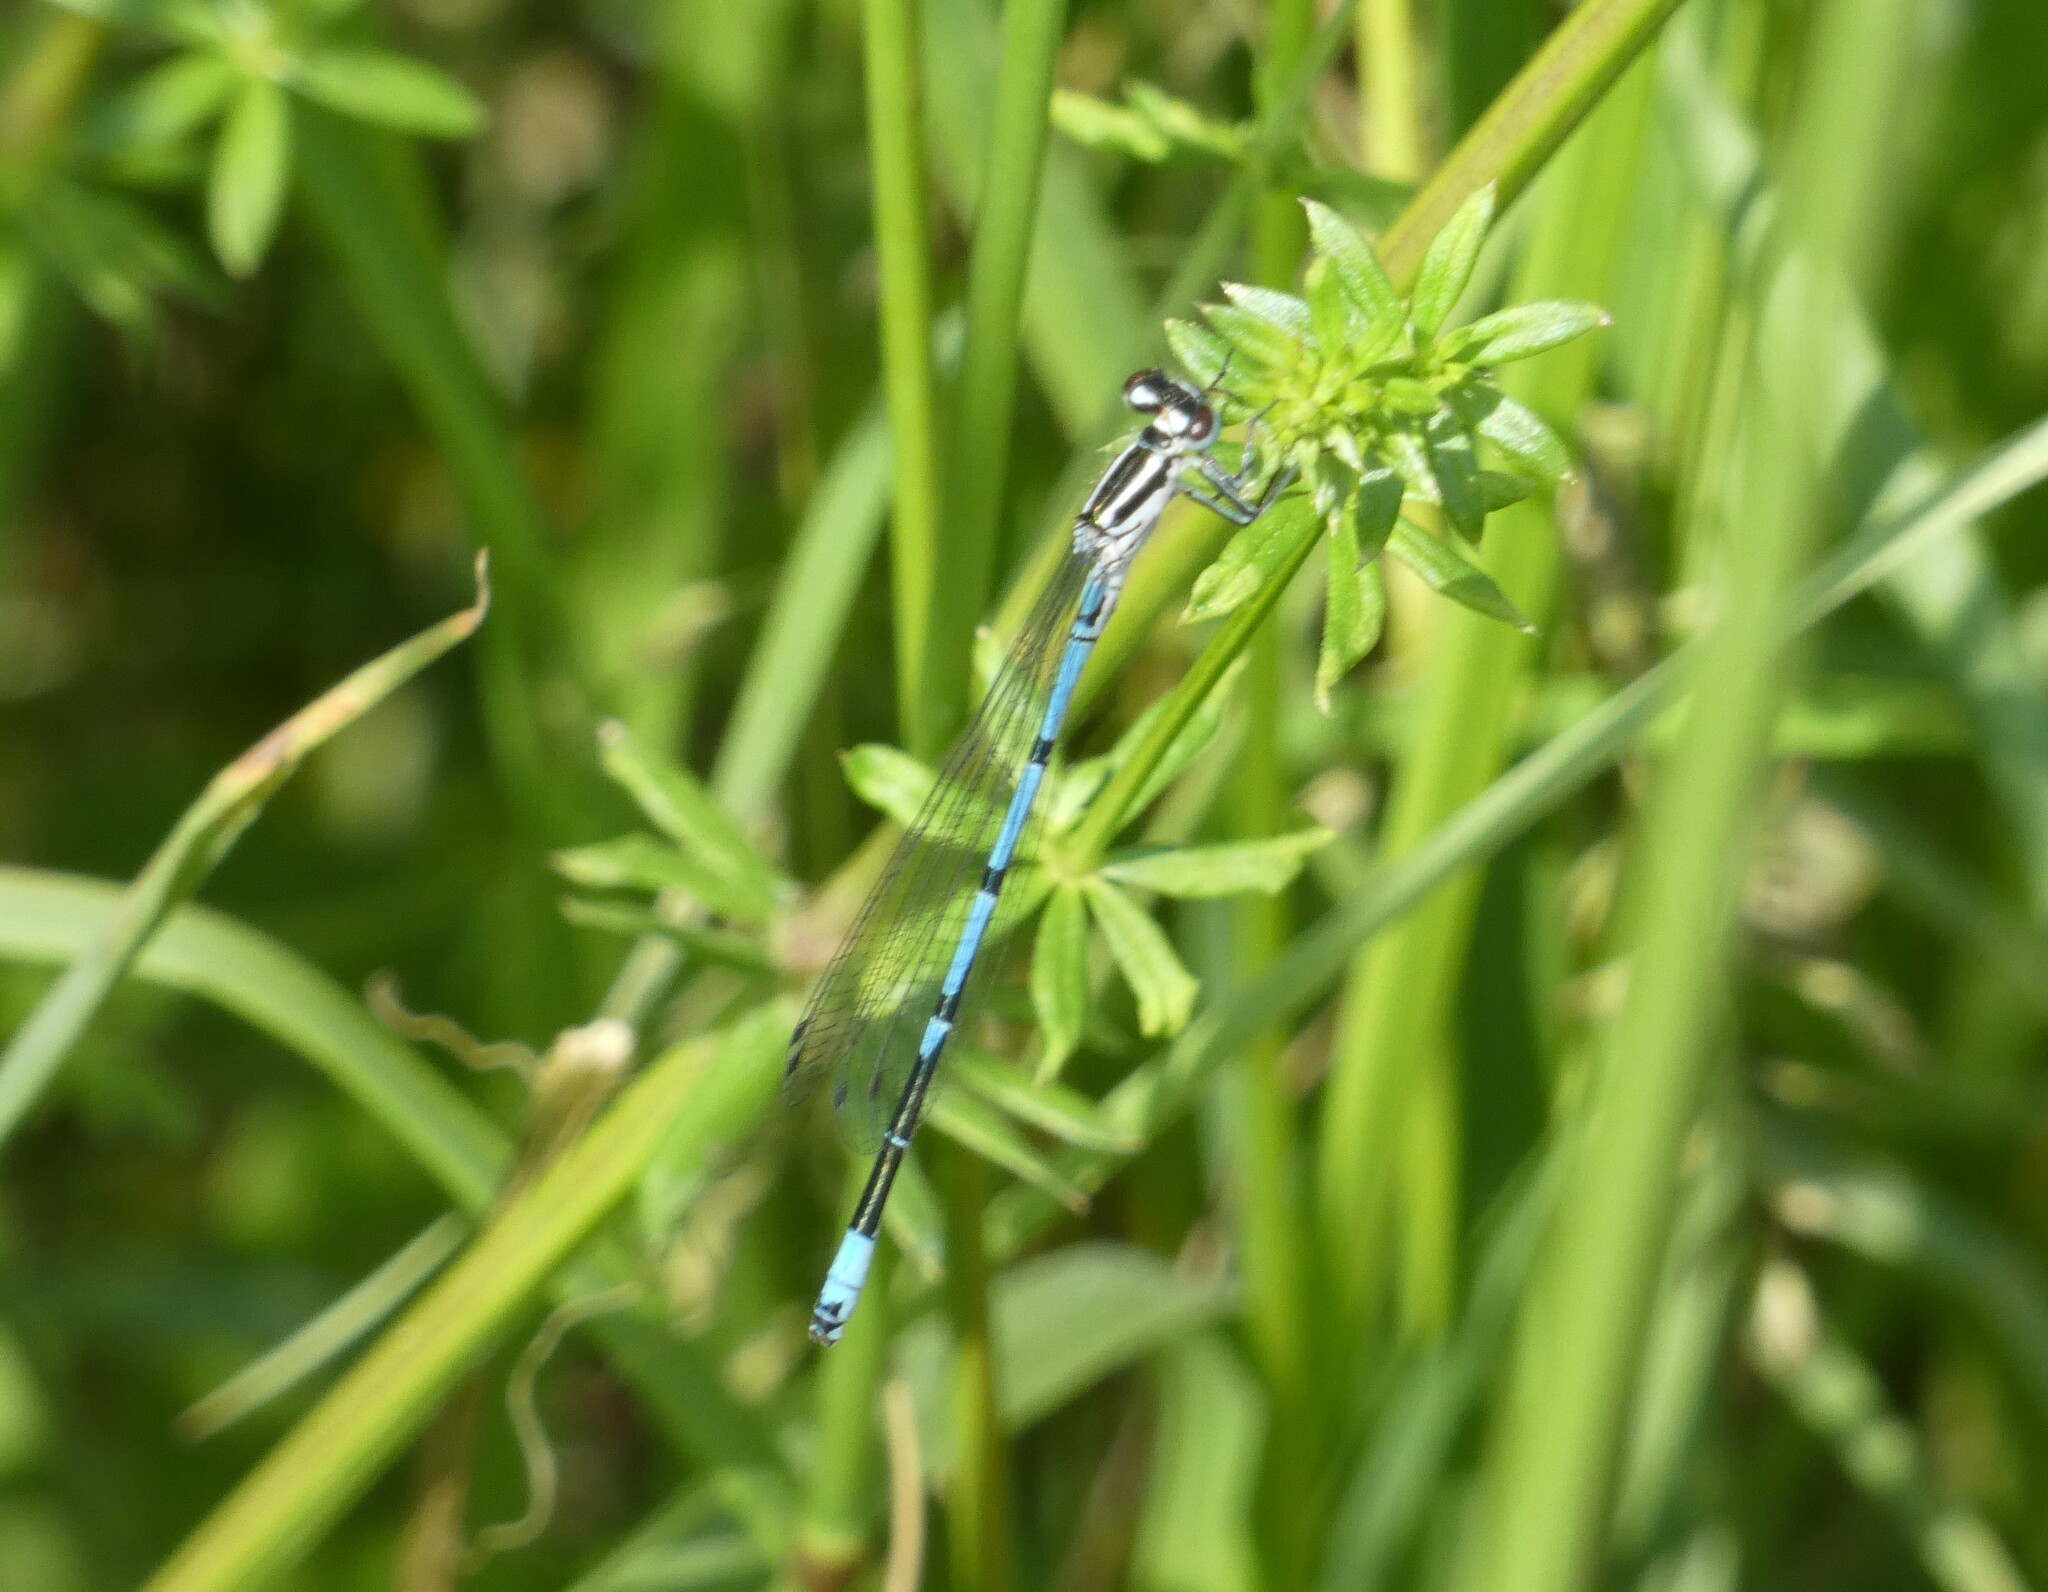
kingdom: Animalia
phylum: Arthropoda
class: Insecta
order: Odonata
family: Coenagrionidae
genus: Coenagrion
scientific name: Coenagrion puella
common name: Azure damselfly
